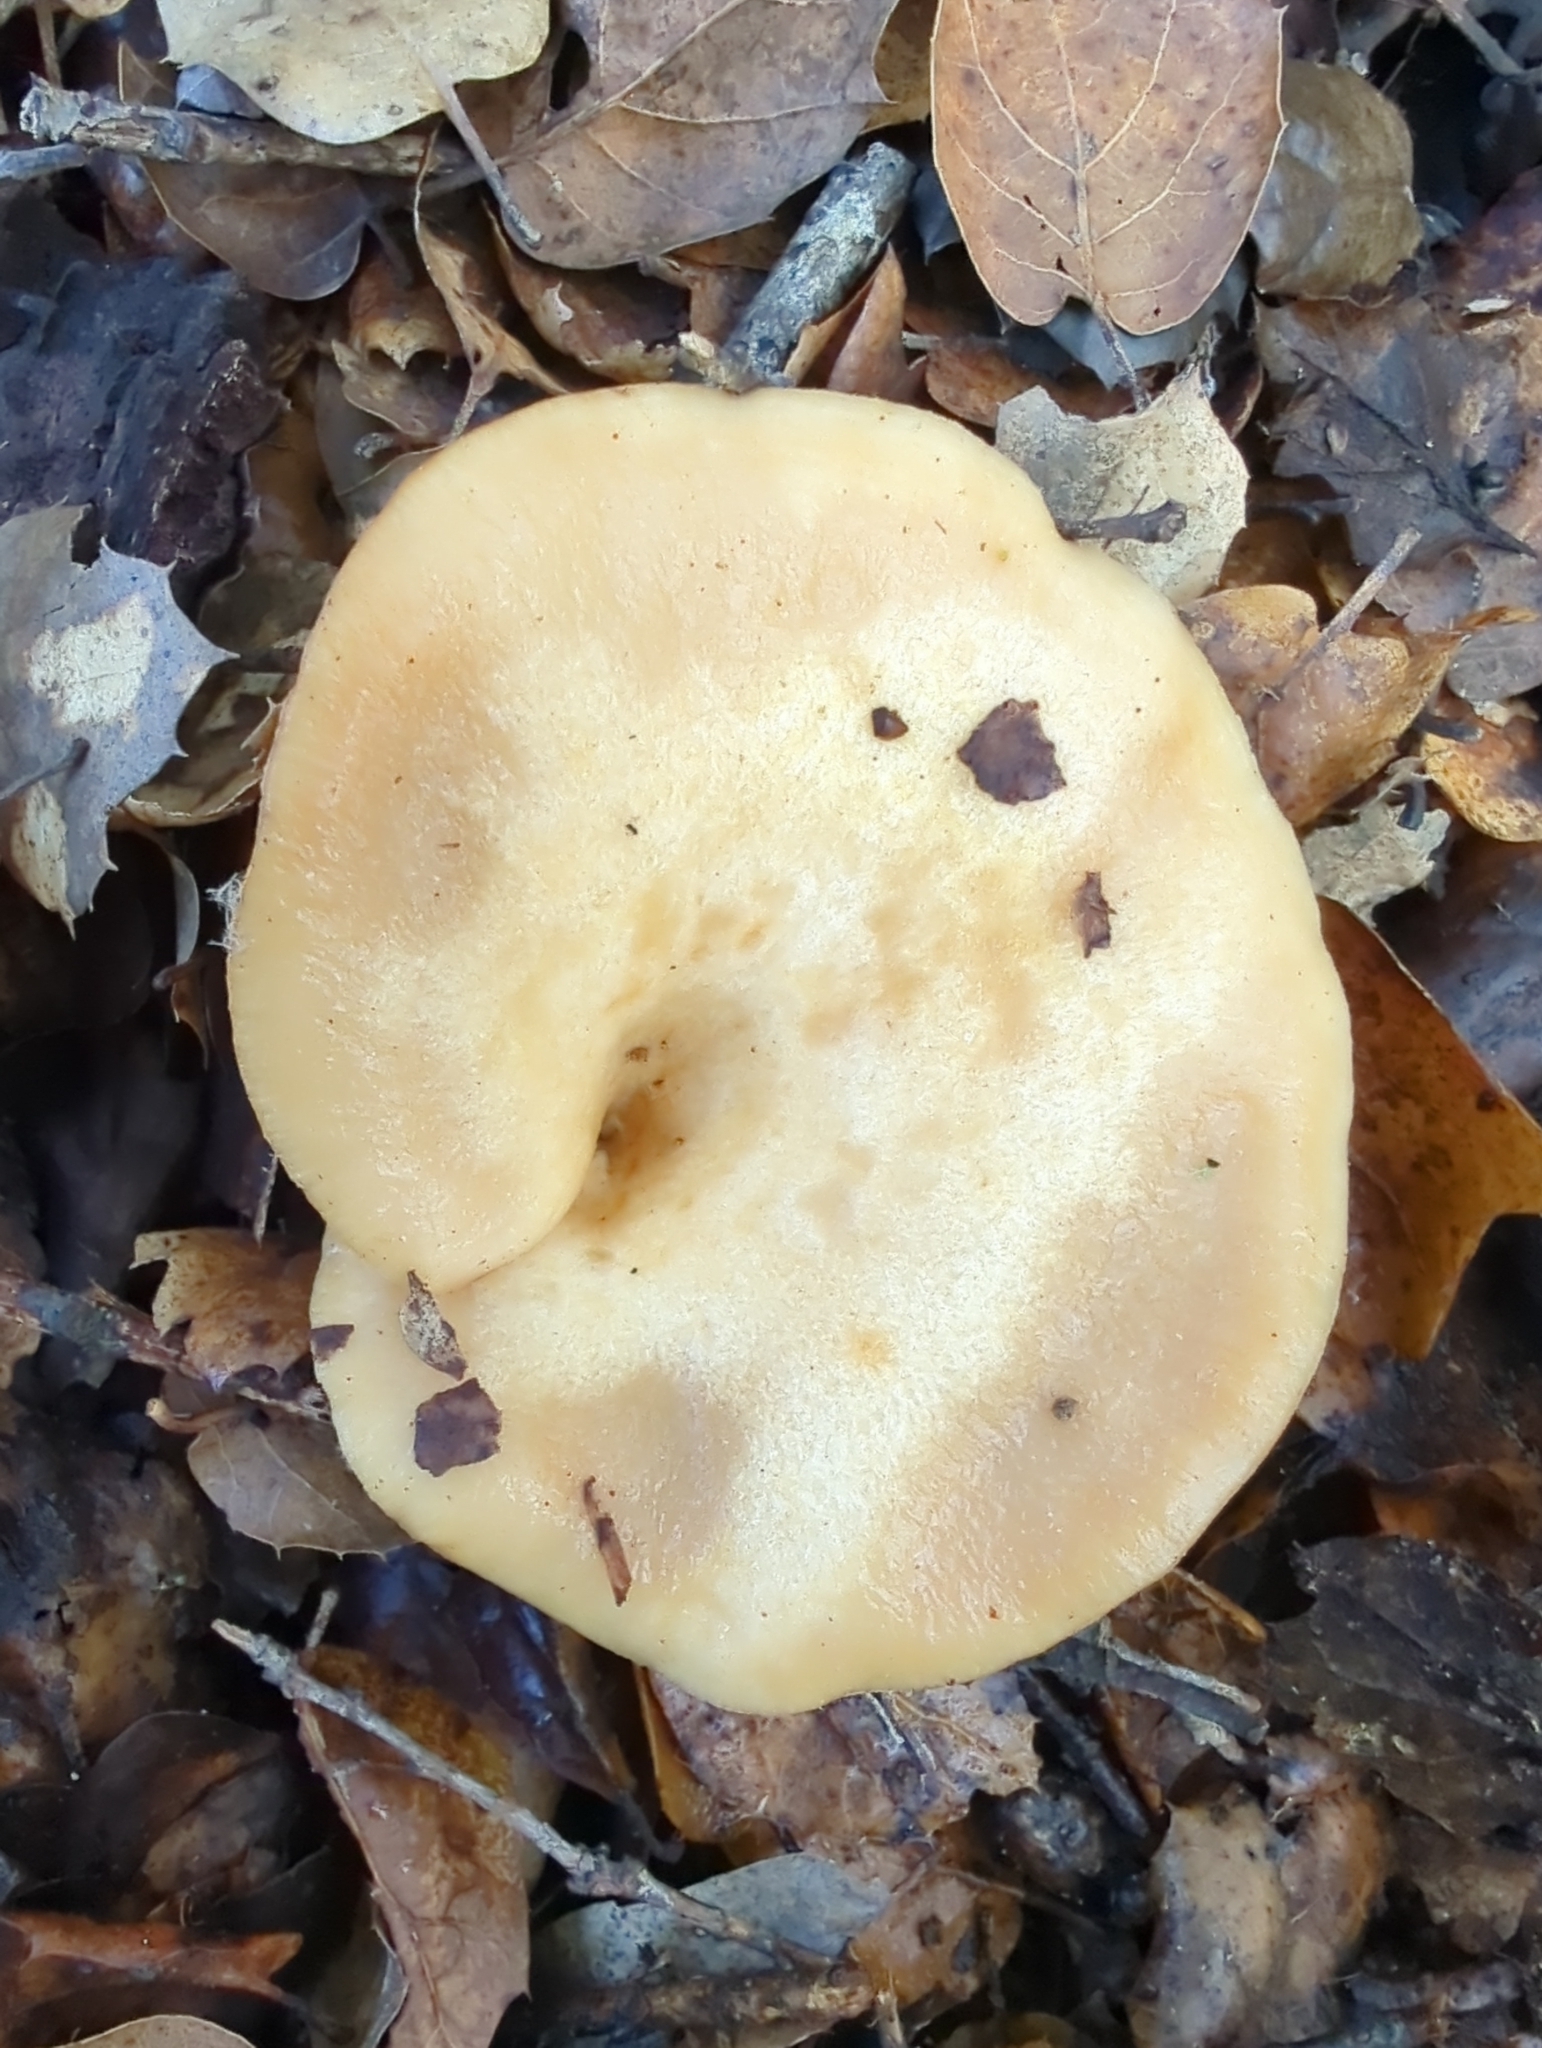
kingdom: Fungi
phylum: Basidiomycota
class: Agaricomycetes
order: Russulales
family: Russulaceae
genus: Lactarius
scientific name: Lactarius alnicola
